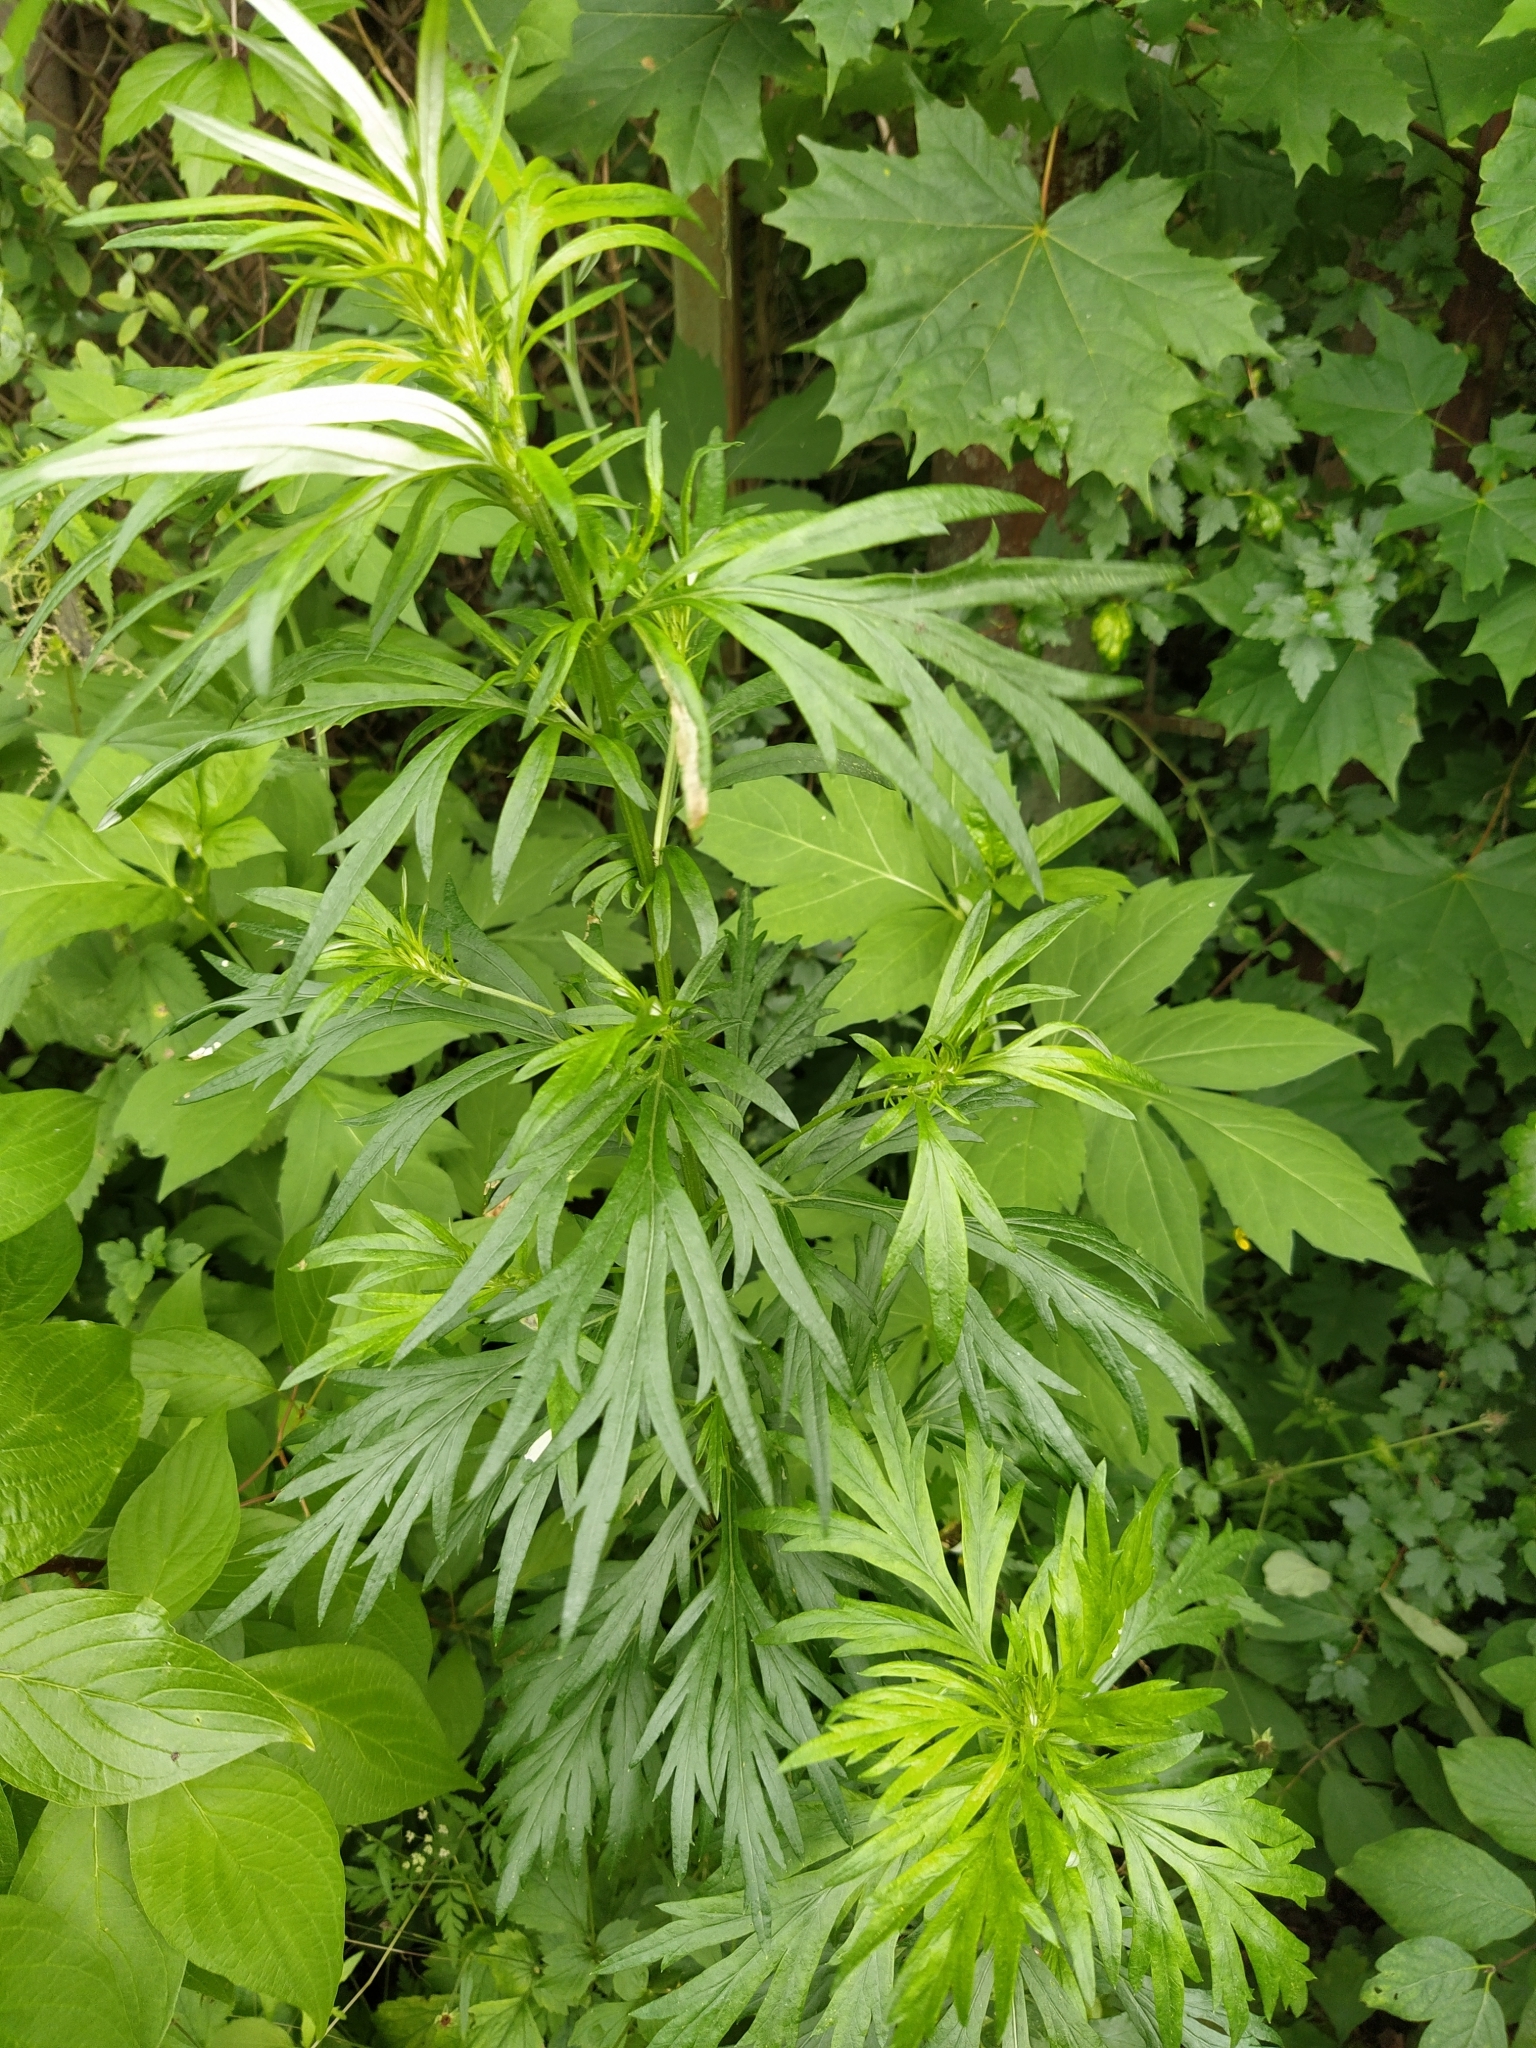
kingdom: Plantae
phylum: Tracheophyta
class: Magnoliopsida
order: Asterales
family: Asteraceae
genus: Artemisia
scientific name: Artemisia vulgaris
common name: Mugwort
